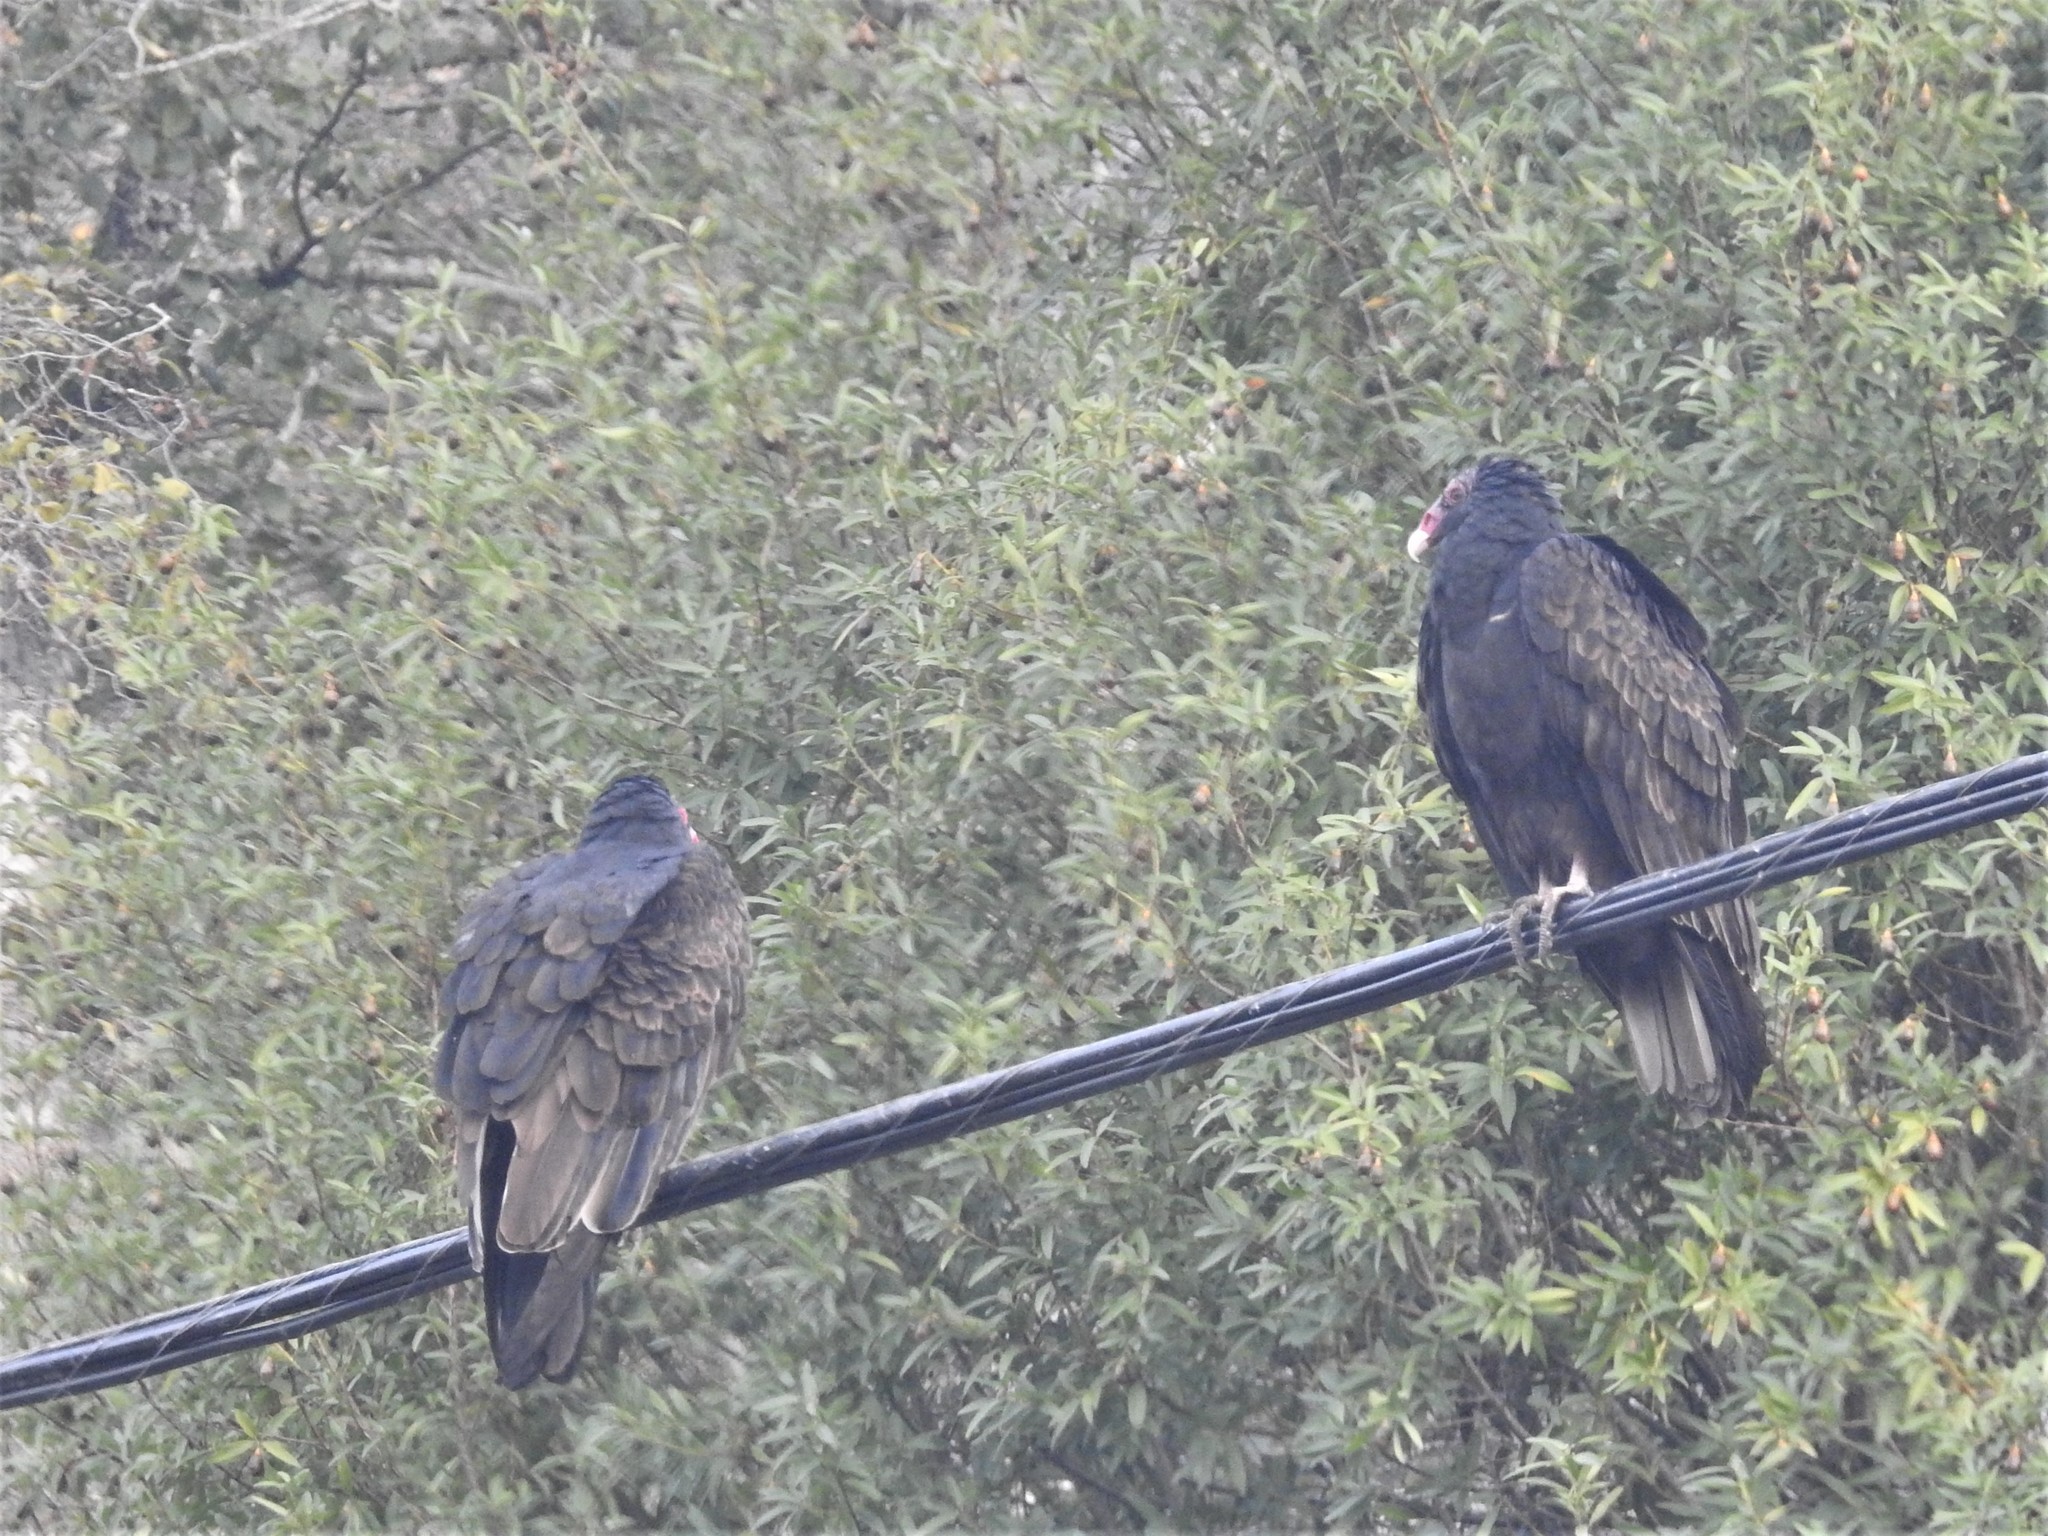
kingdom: Animalia
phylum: Chordata
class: Aves
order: Accipitriformes
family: Cathartidae
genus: Cathartes
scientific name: Cathartes aura
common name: Turkey vulture
